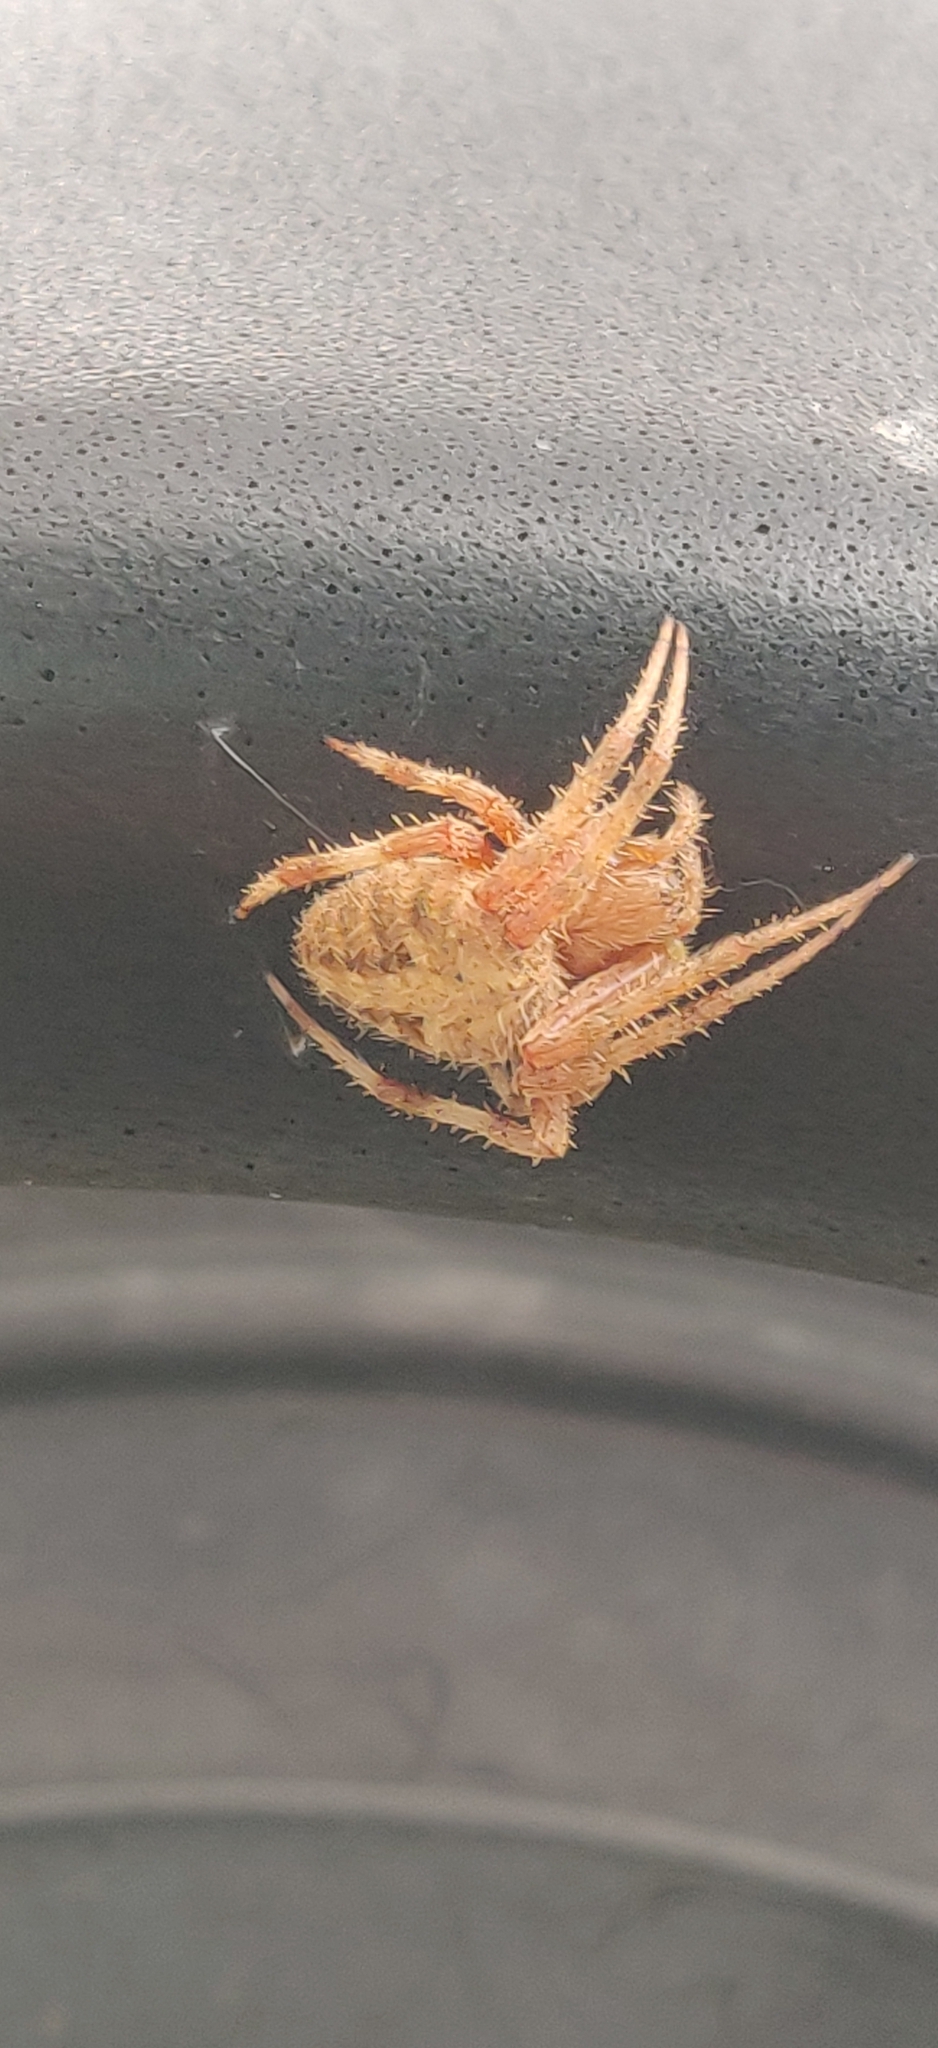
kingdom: Animalia
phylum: Arthropoda
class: Arachnida
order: Araneae
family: Araneidae
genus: Neoscona
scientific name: Neoscona crucifera
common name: Spotted orbweaver
